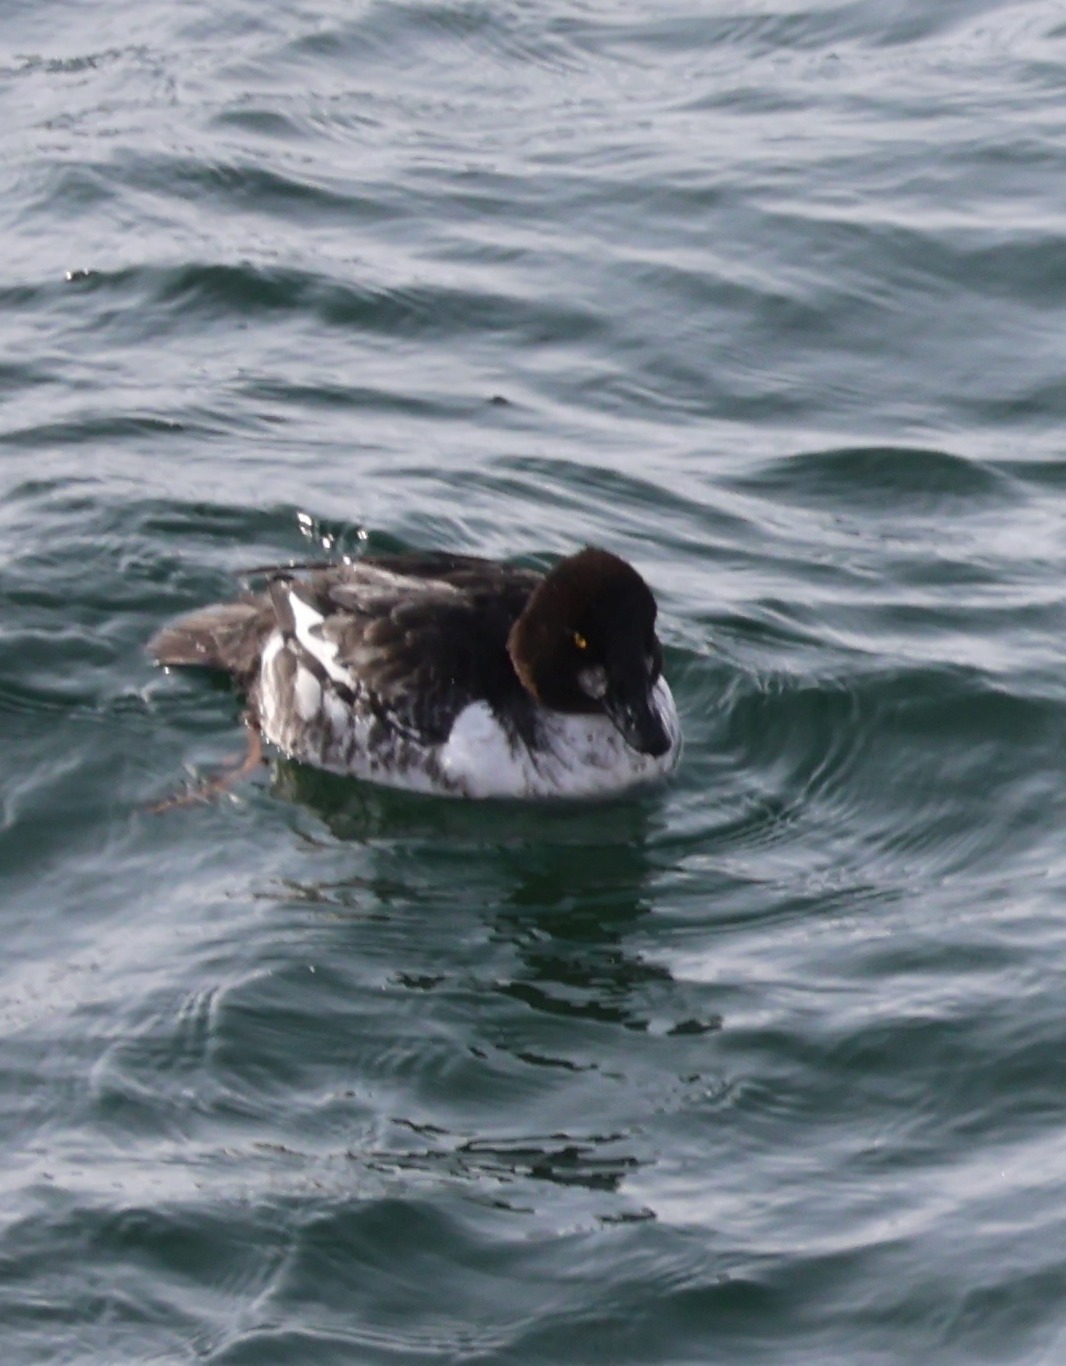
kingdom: Animalia
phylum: Chordata
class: Aves
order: Anseriformes
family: Anatidae
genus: Bucephala
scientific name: Bucephala clangula
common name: Common goldeneye
